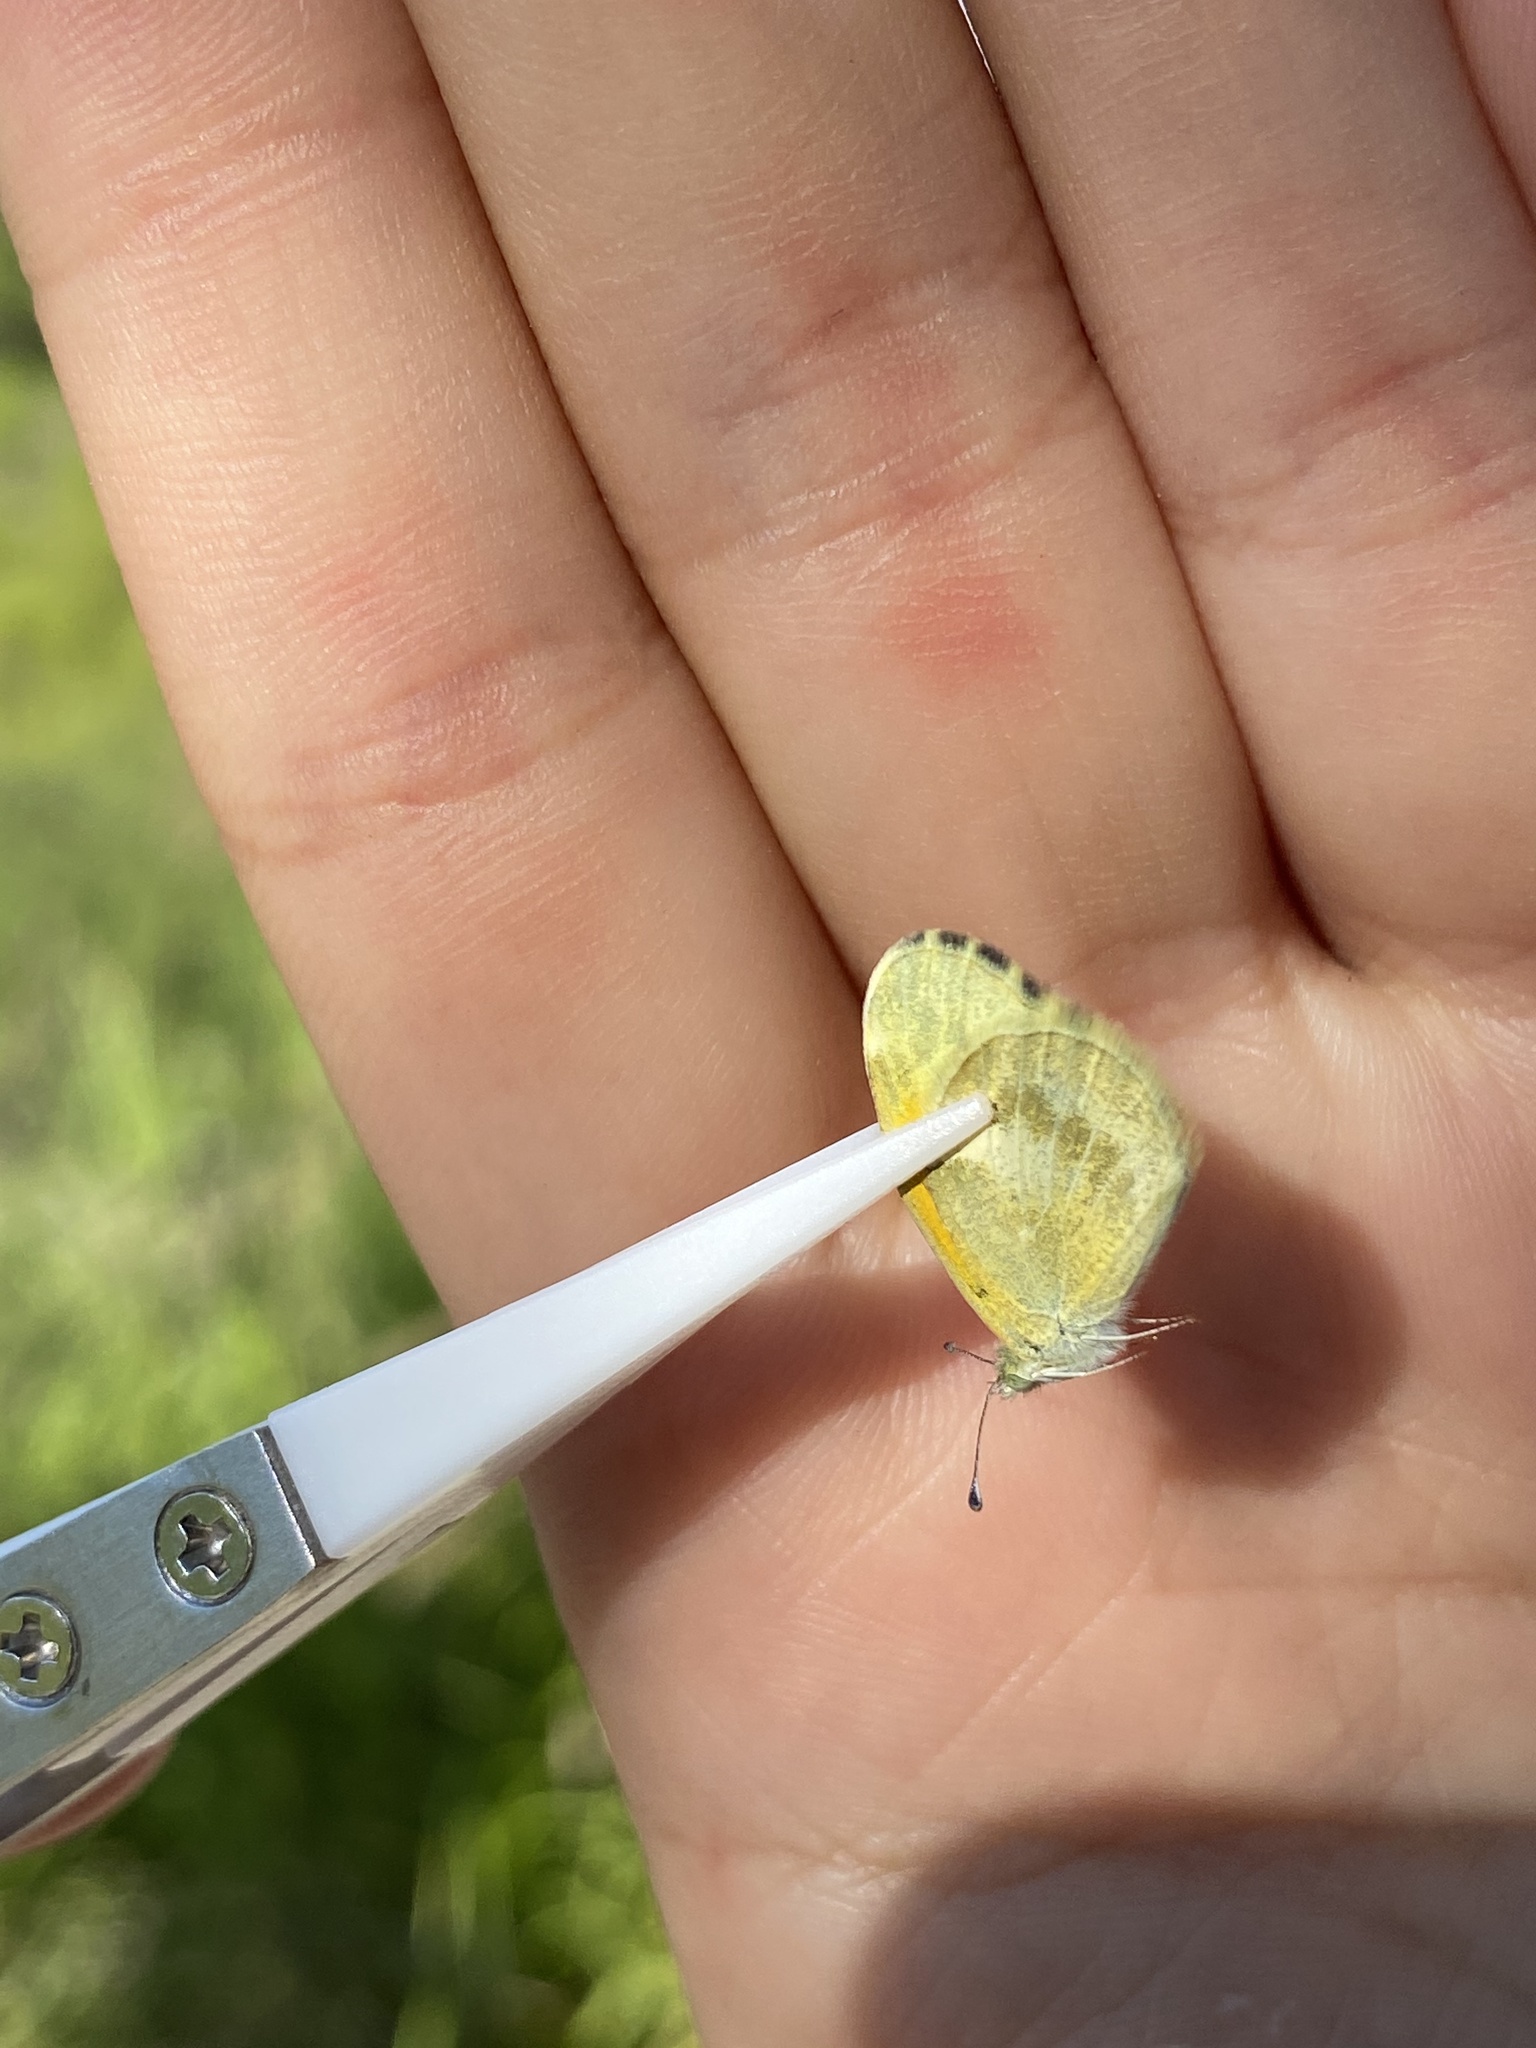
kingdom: Animalia
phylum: Arthropoda
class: Insecta
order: Lepidoptera
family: Pieridae
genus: Nathalis
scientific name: Nathalis iole
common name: Dainty sulphur
